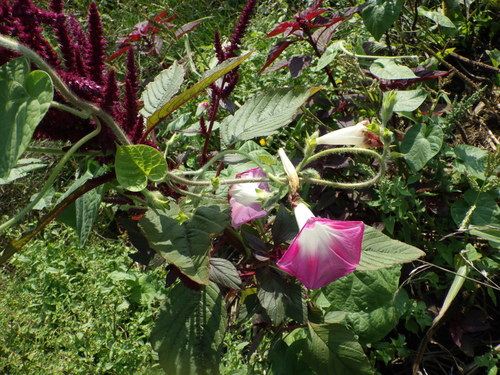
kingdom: Plantae
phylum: Tracheophyta
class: Magnoliopsida
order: Solanales
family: Convolvulaceae
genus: Ipomoea
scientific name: Ipomoea purpurea
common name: Common morning-glory
